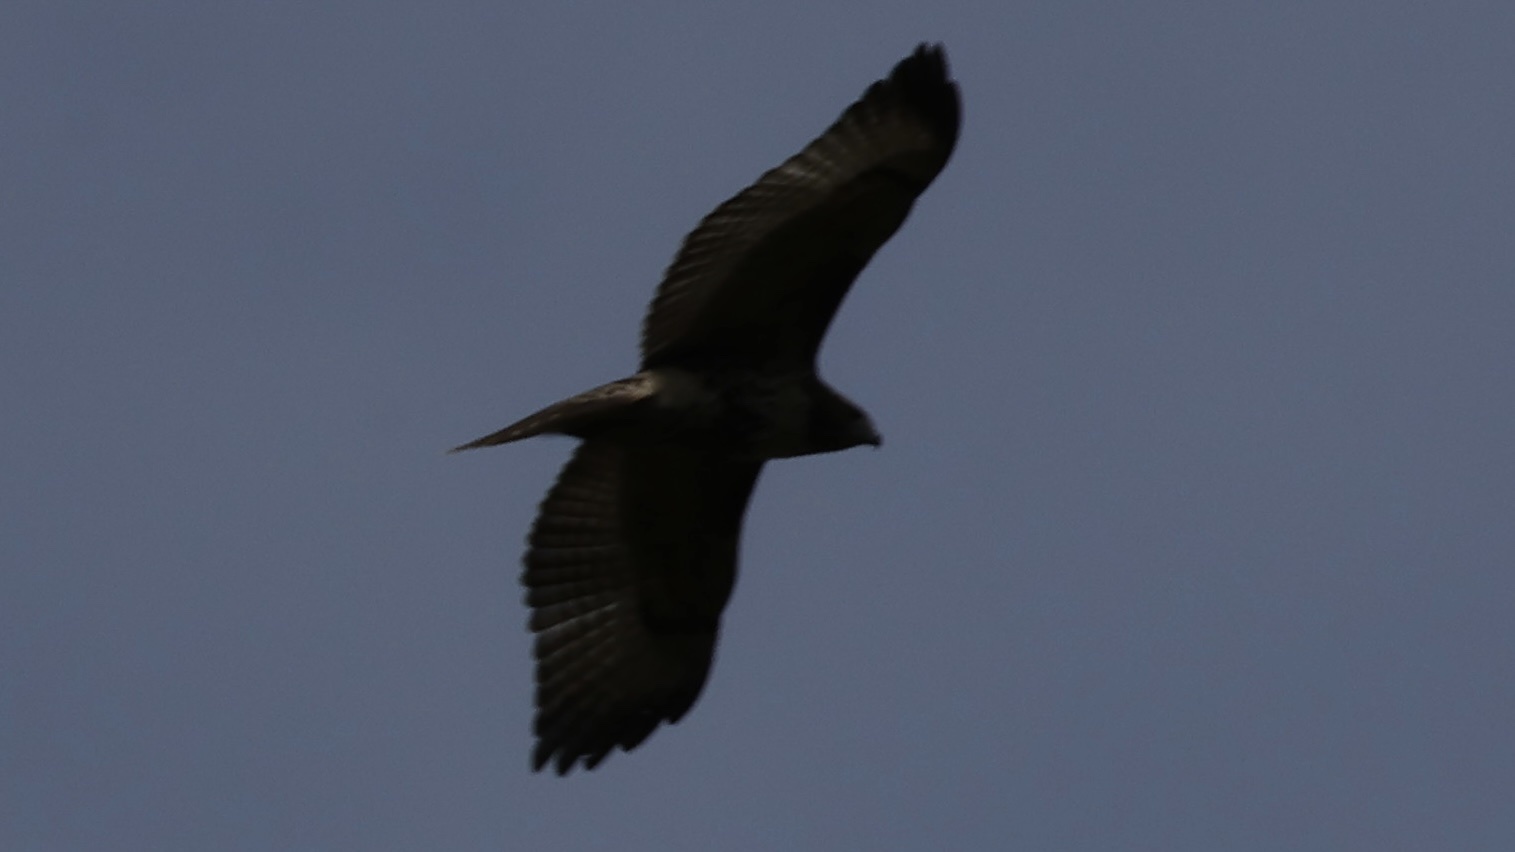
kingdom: Animalia
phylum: Chordata
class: Aves
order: Accipitriformes
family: Accipitridae
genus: Buteo
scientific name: Buteo jamaicensis
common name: Red-tailed hawk
